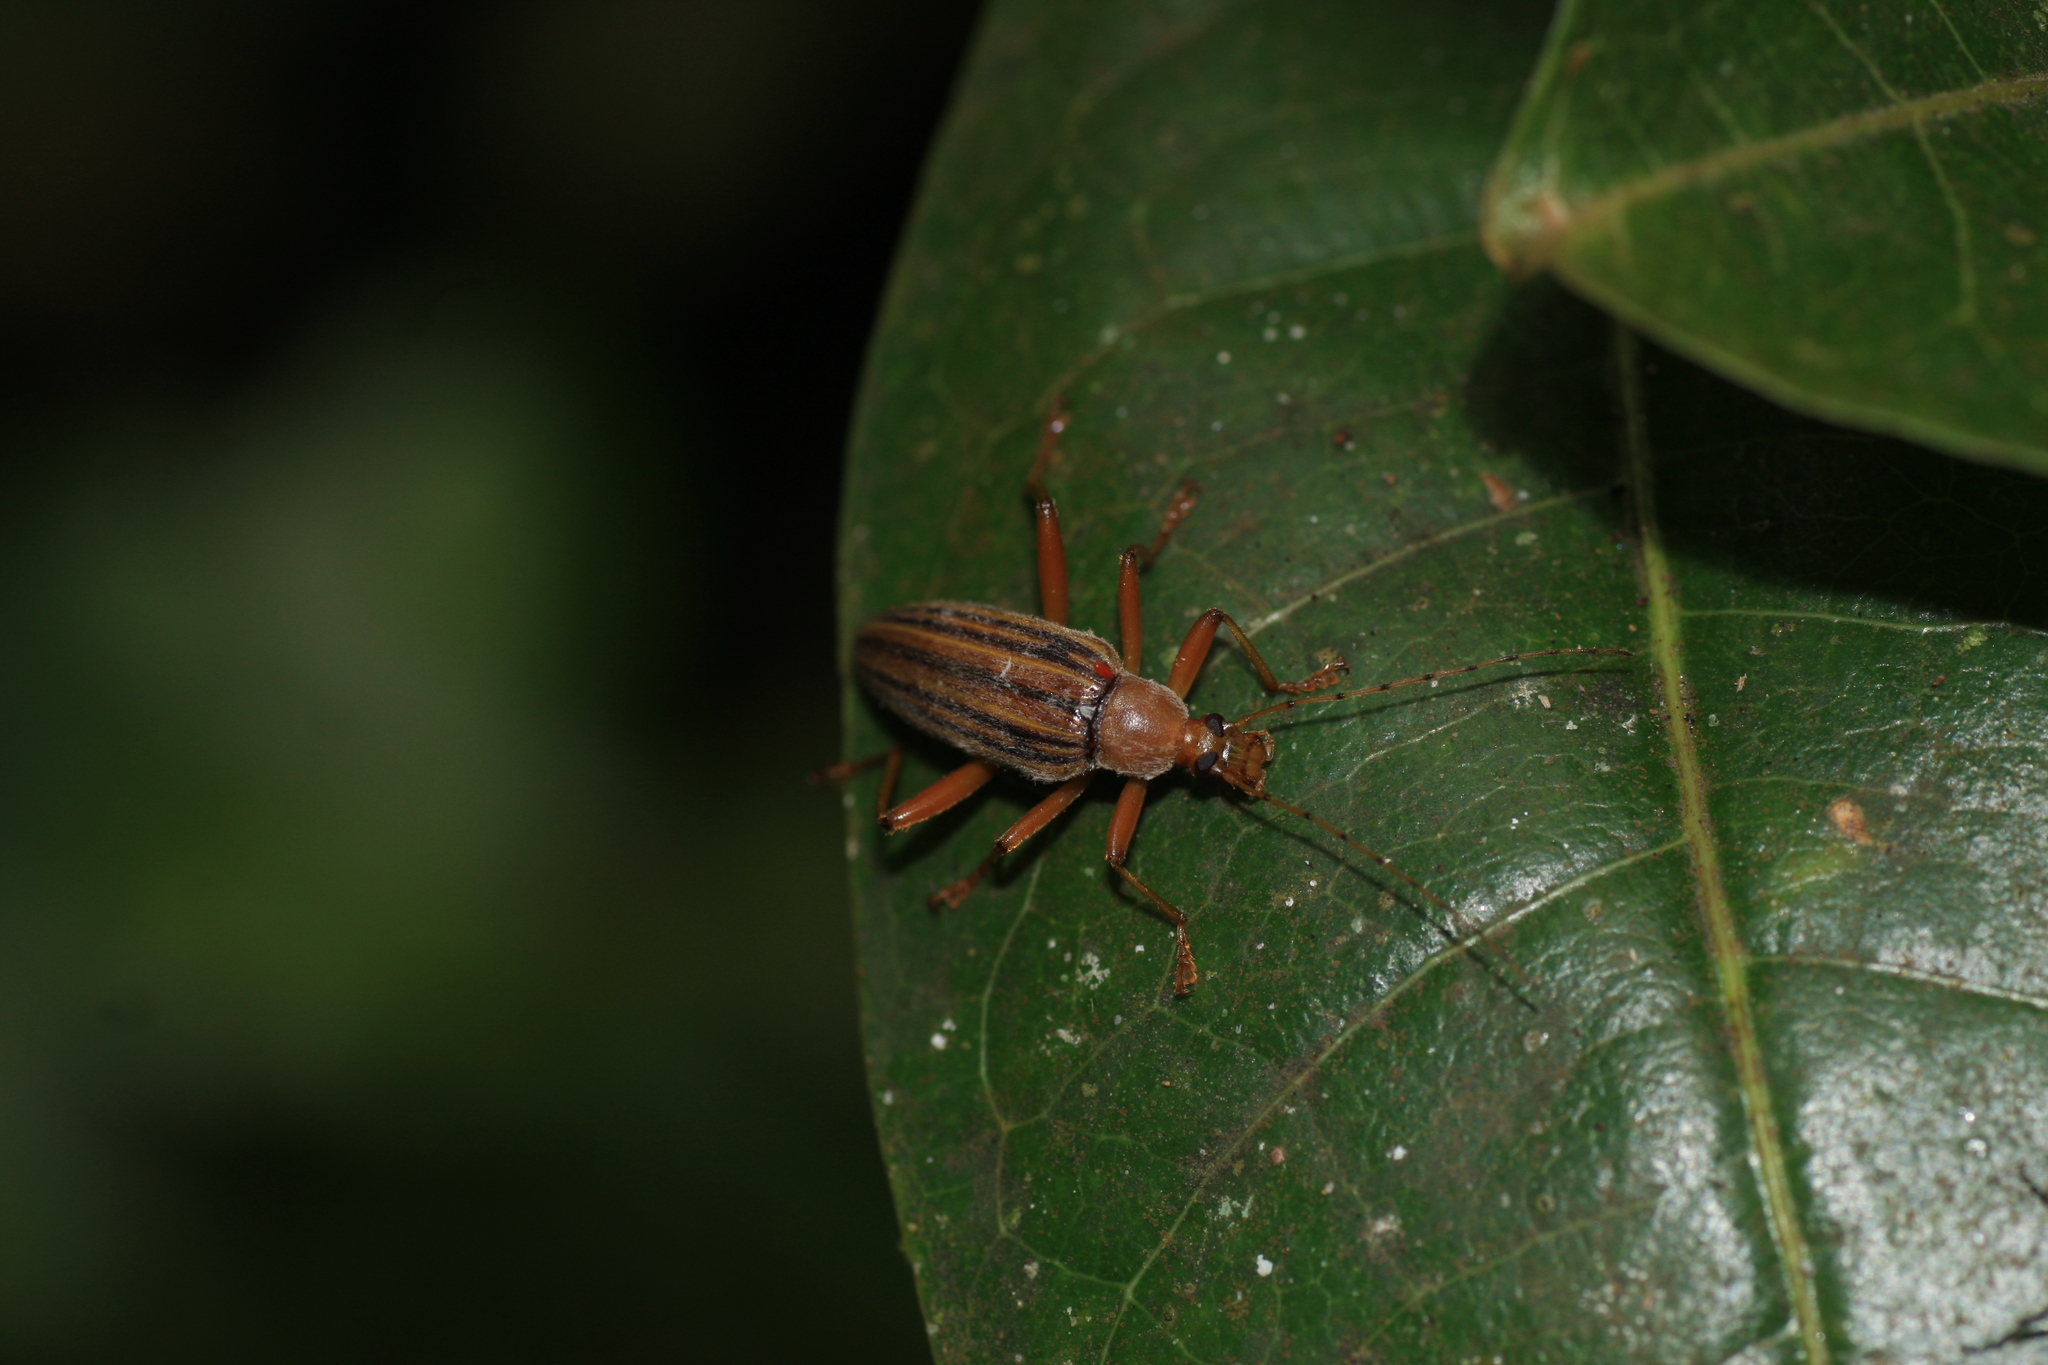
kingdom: Animalia
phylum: Arthropoda
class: Insecta
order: Coleoptera
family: Tenebrionidae
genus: Asticostena
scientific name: Asticostena
